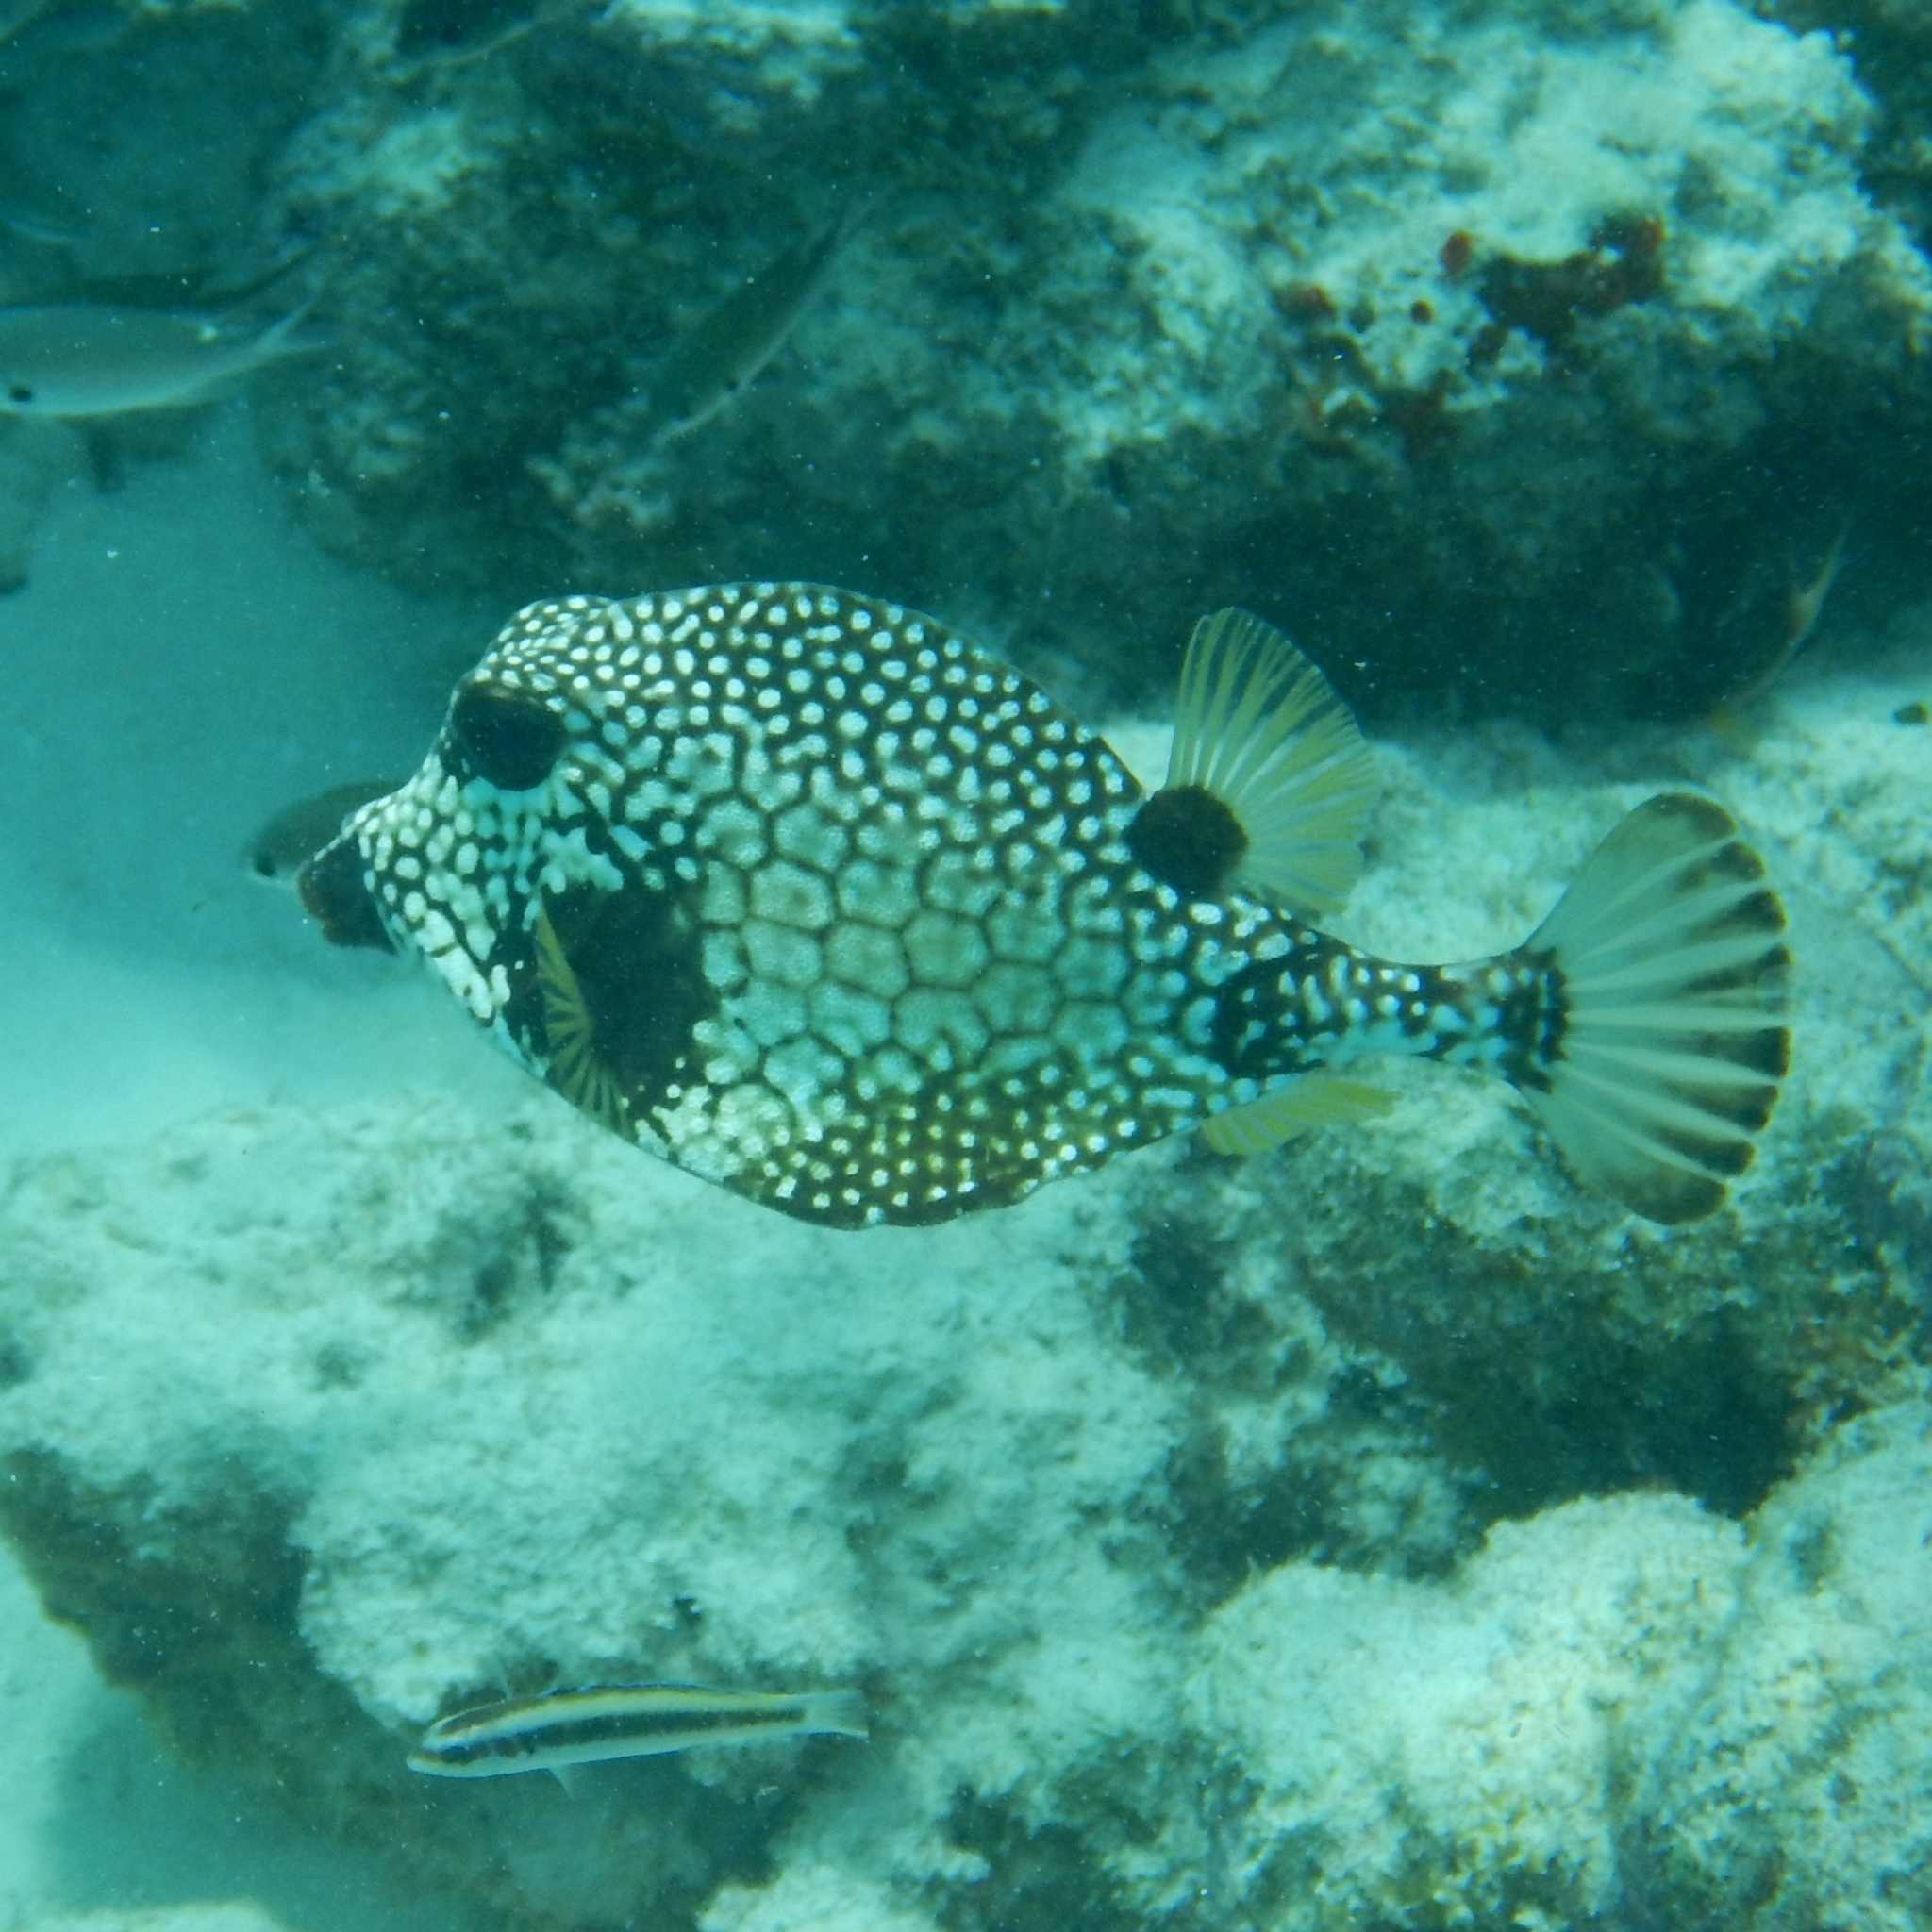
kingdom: Animalia
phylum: Chordata
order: Tetraodontiformes
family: Ostraciidae
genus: Lactophrys
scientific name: Lactophrys triqueter
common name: Smooth trunkfish
